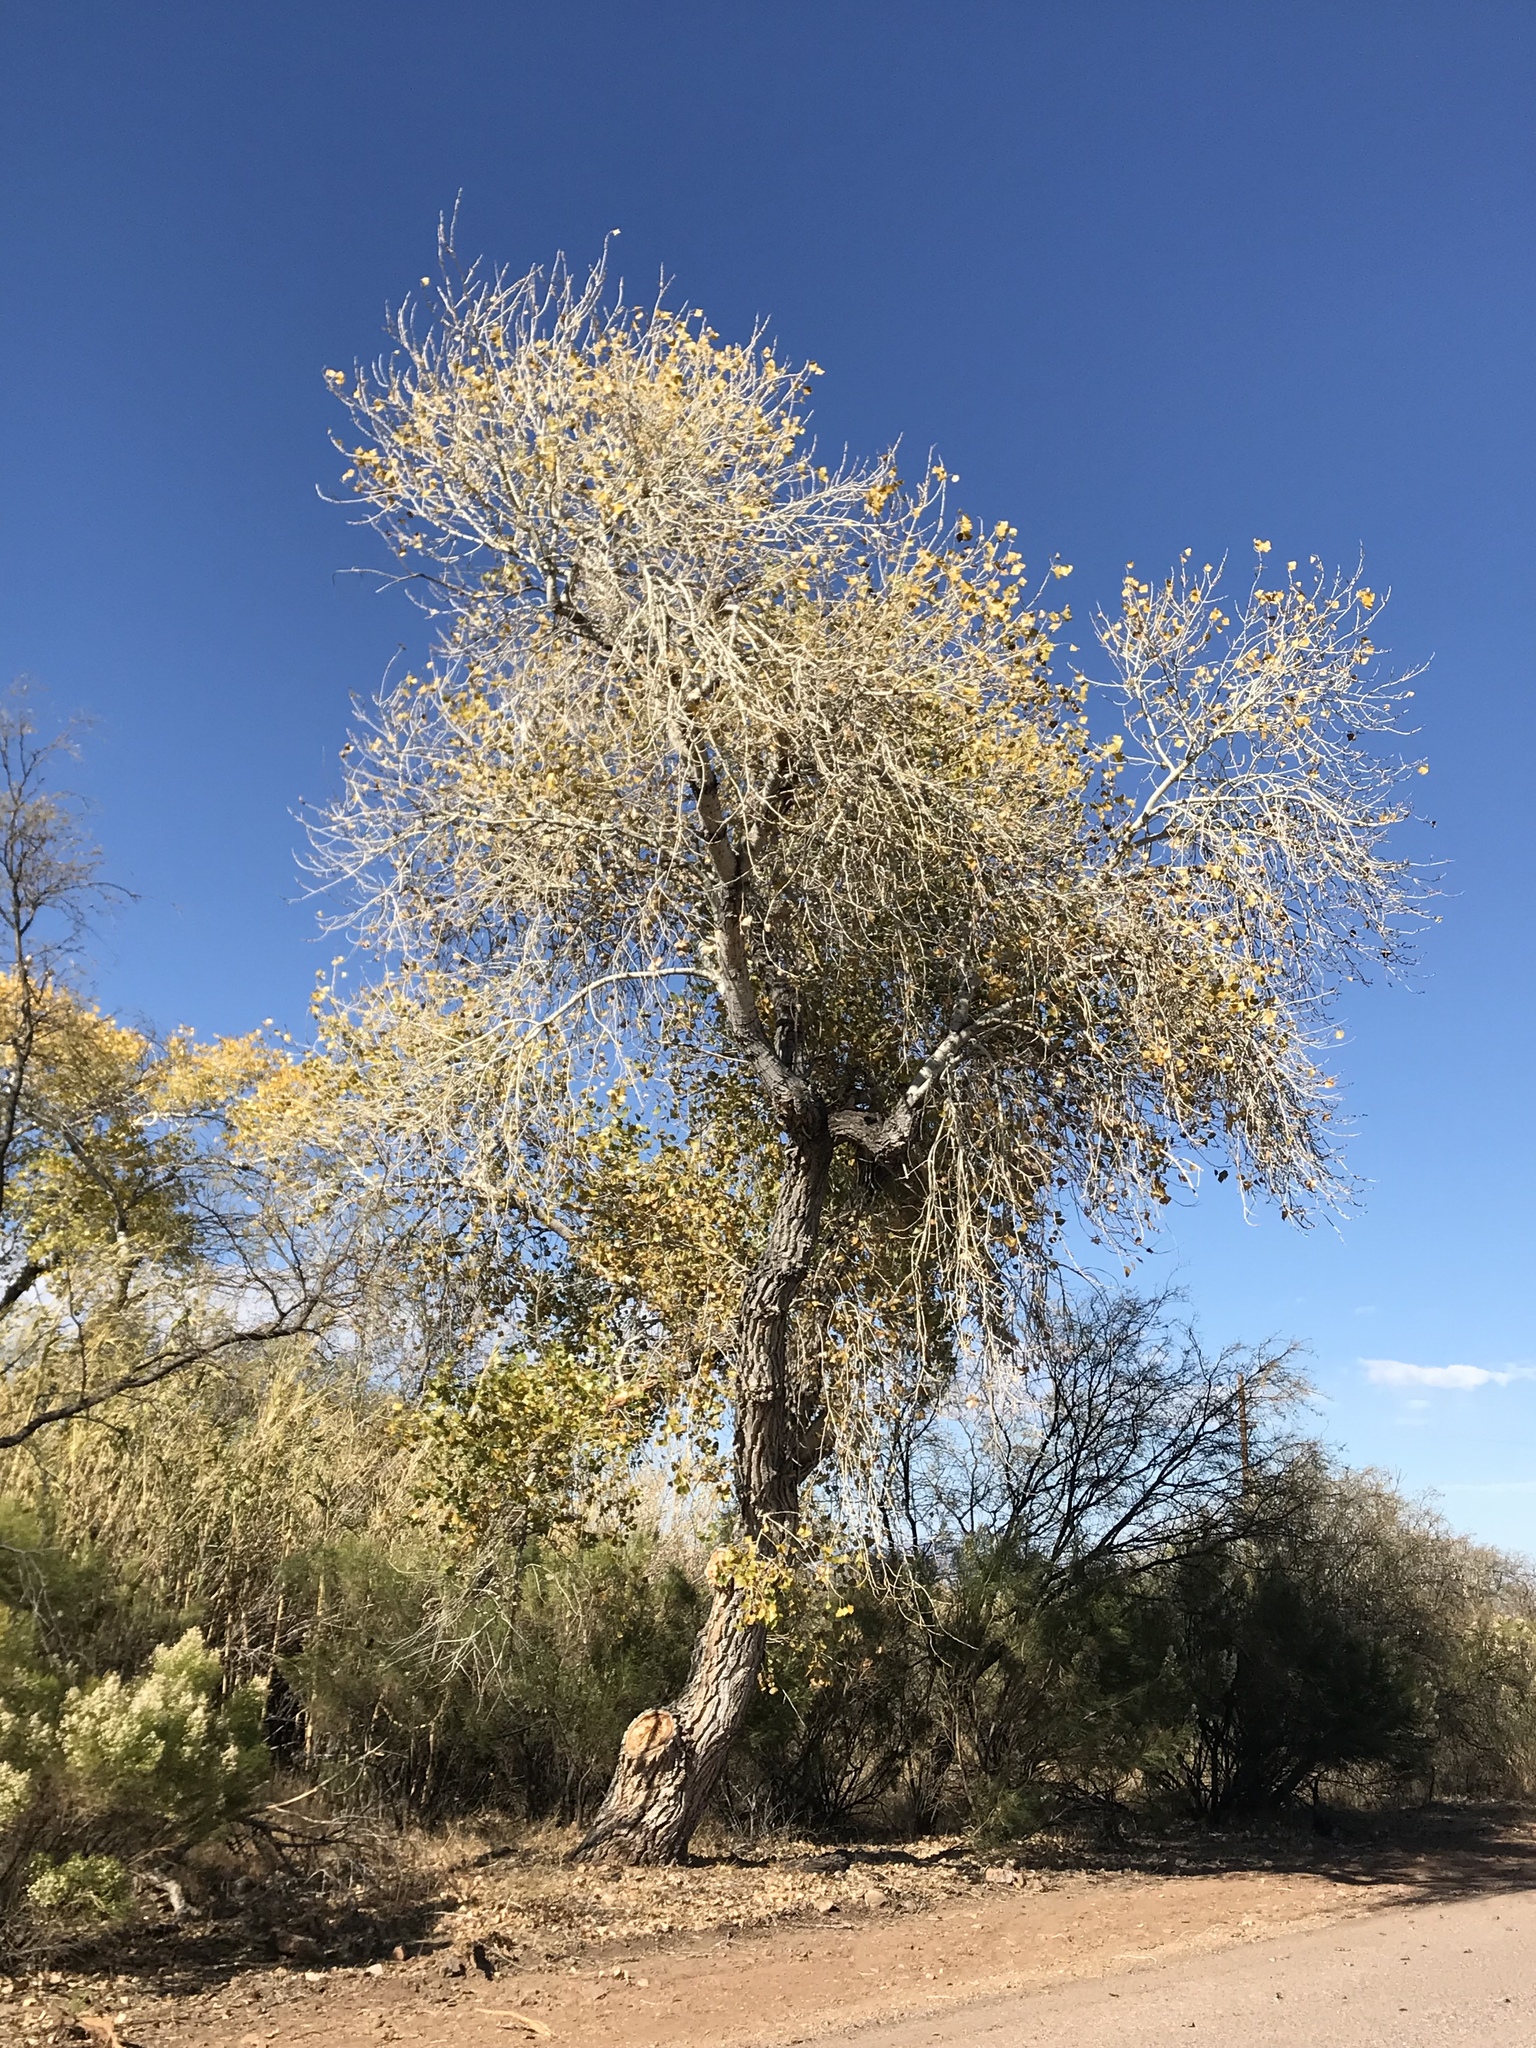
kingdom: Plantae
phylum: Tracheophyta
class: Magnoliopsida
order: Malpighiales
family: Salicaceae
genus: Populus
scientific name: Populus fremontii
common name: Fremont's cottonwood
